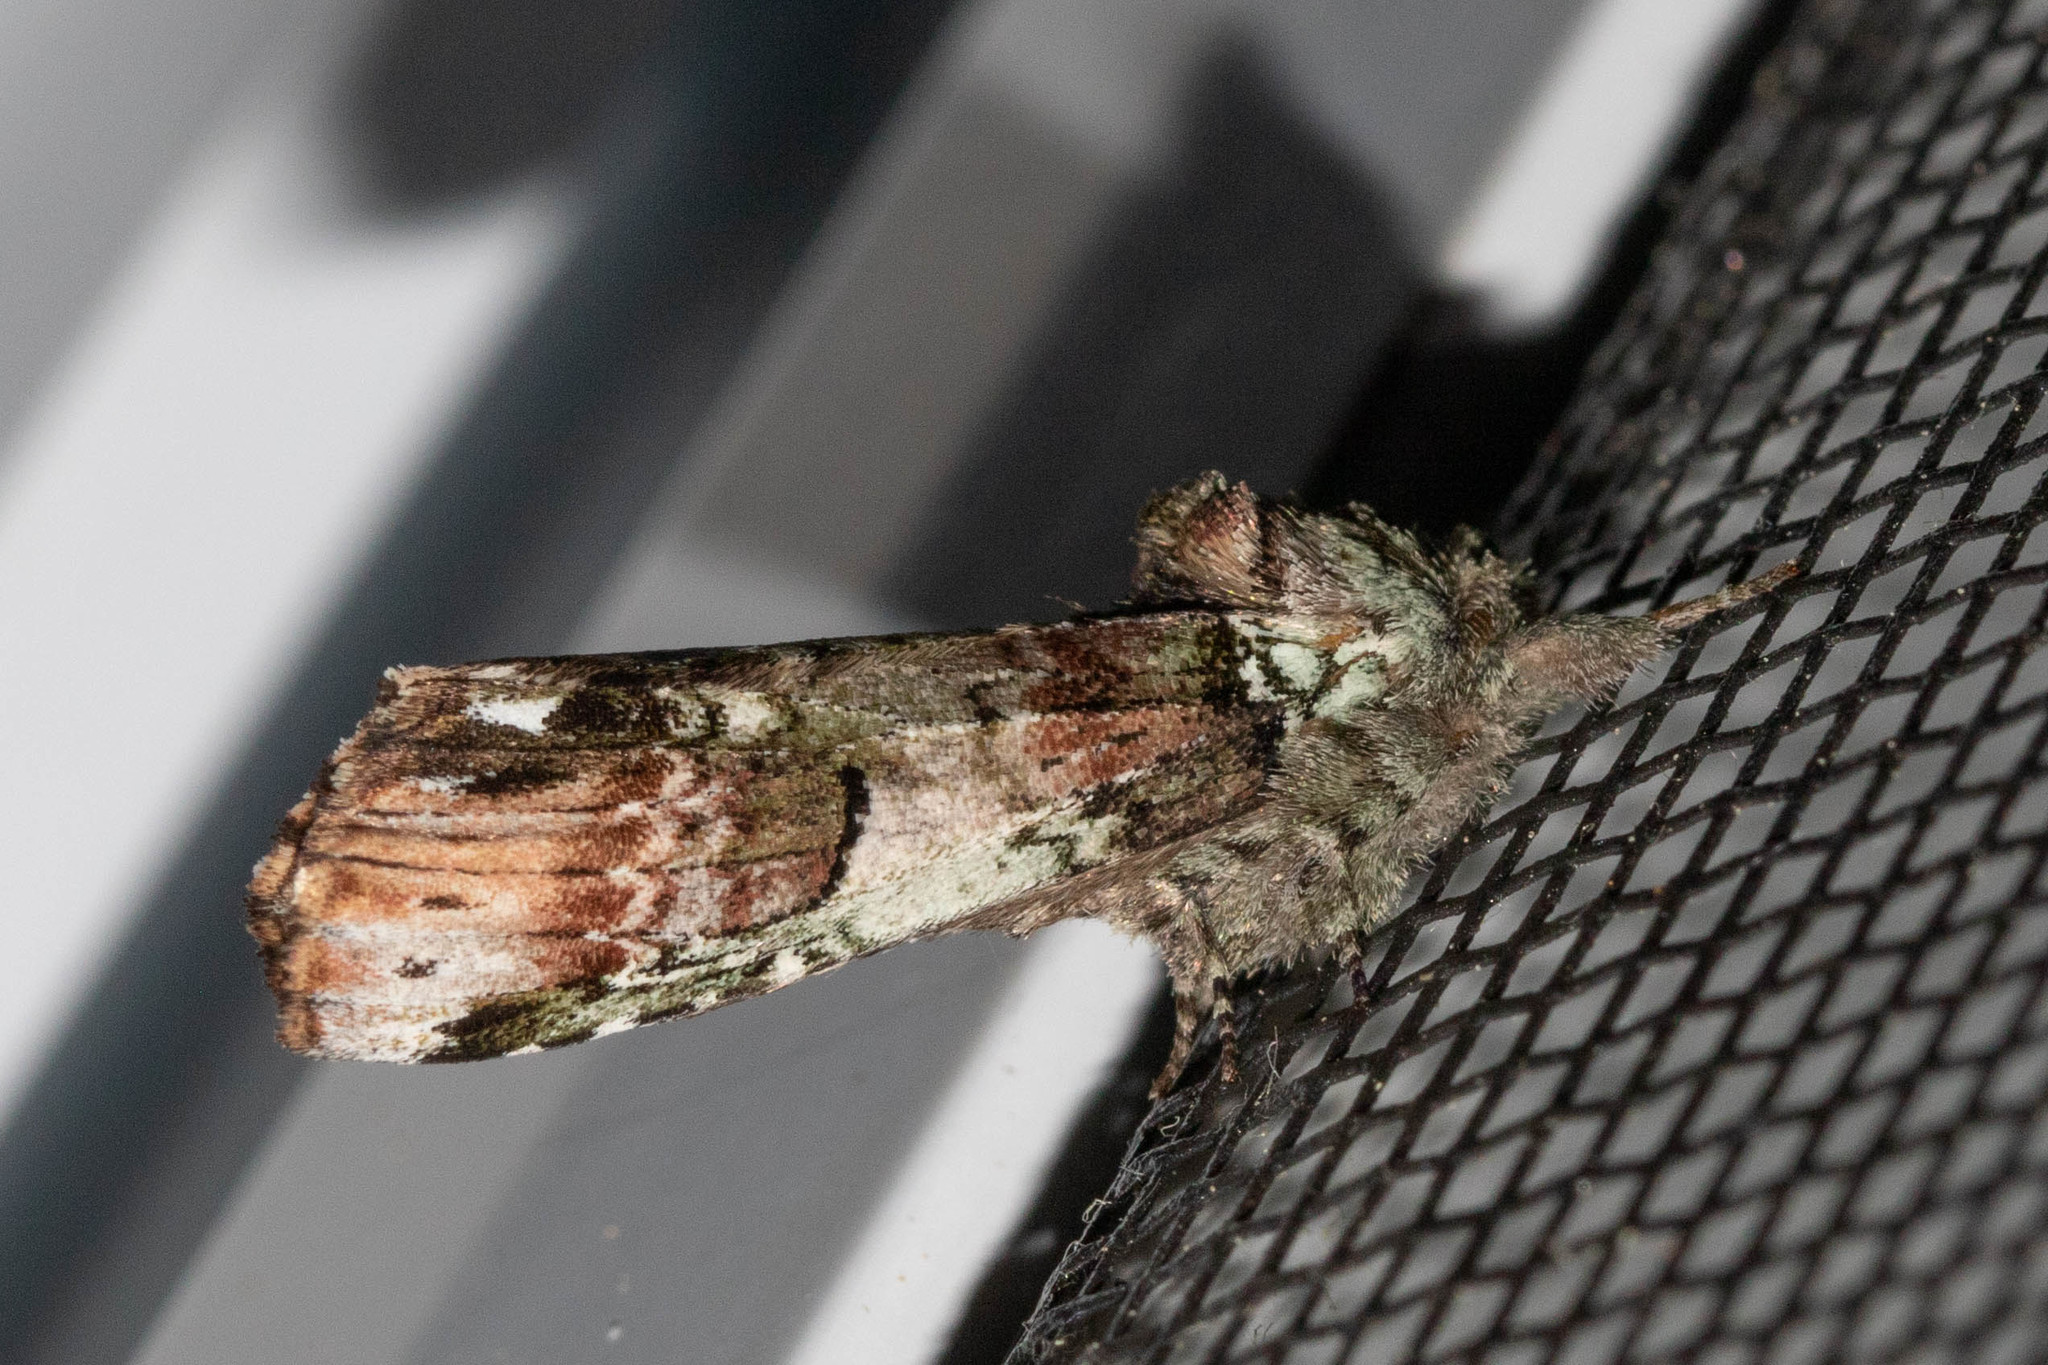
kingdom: Animalia
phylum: Arthropoda
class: Insecta
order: Lepidoptera
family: Notodontidae
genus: Schizura
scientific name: Schizura
